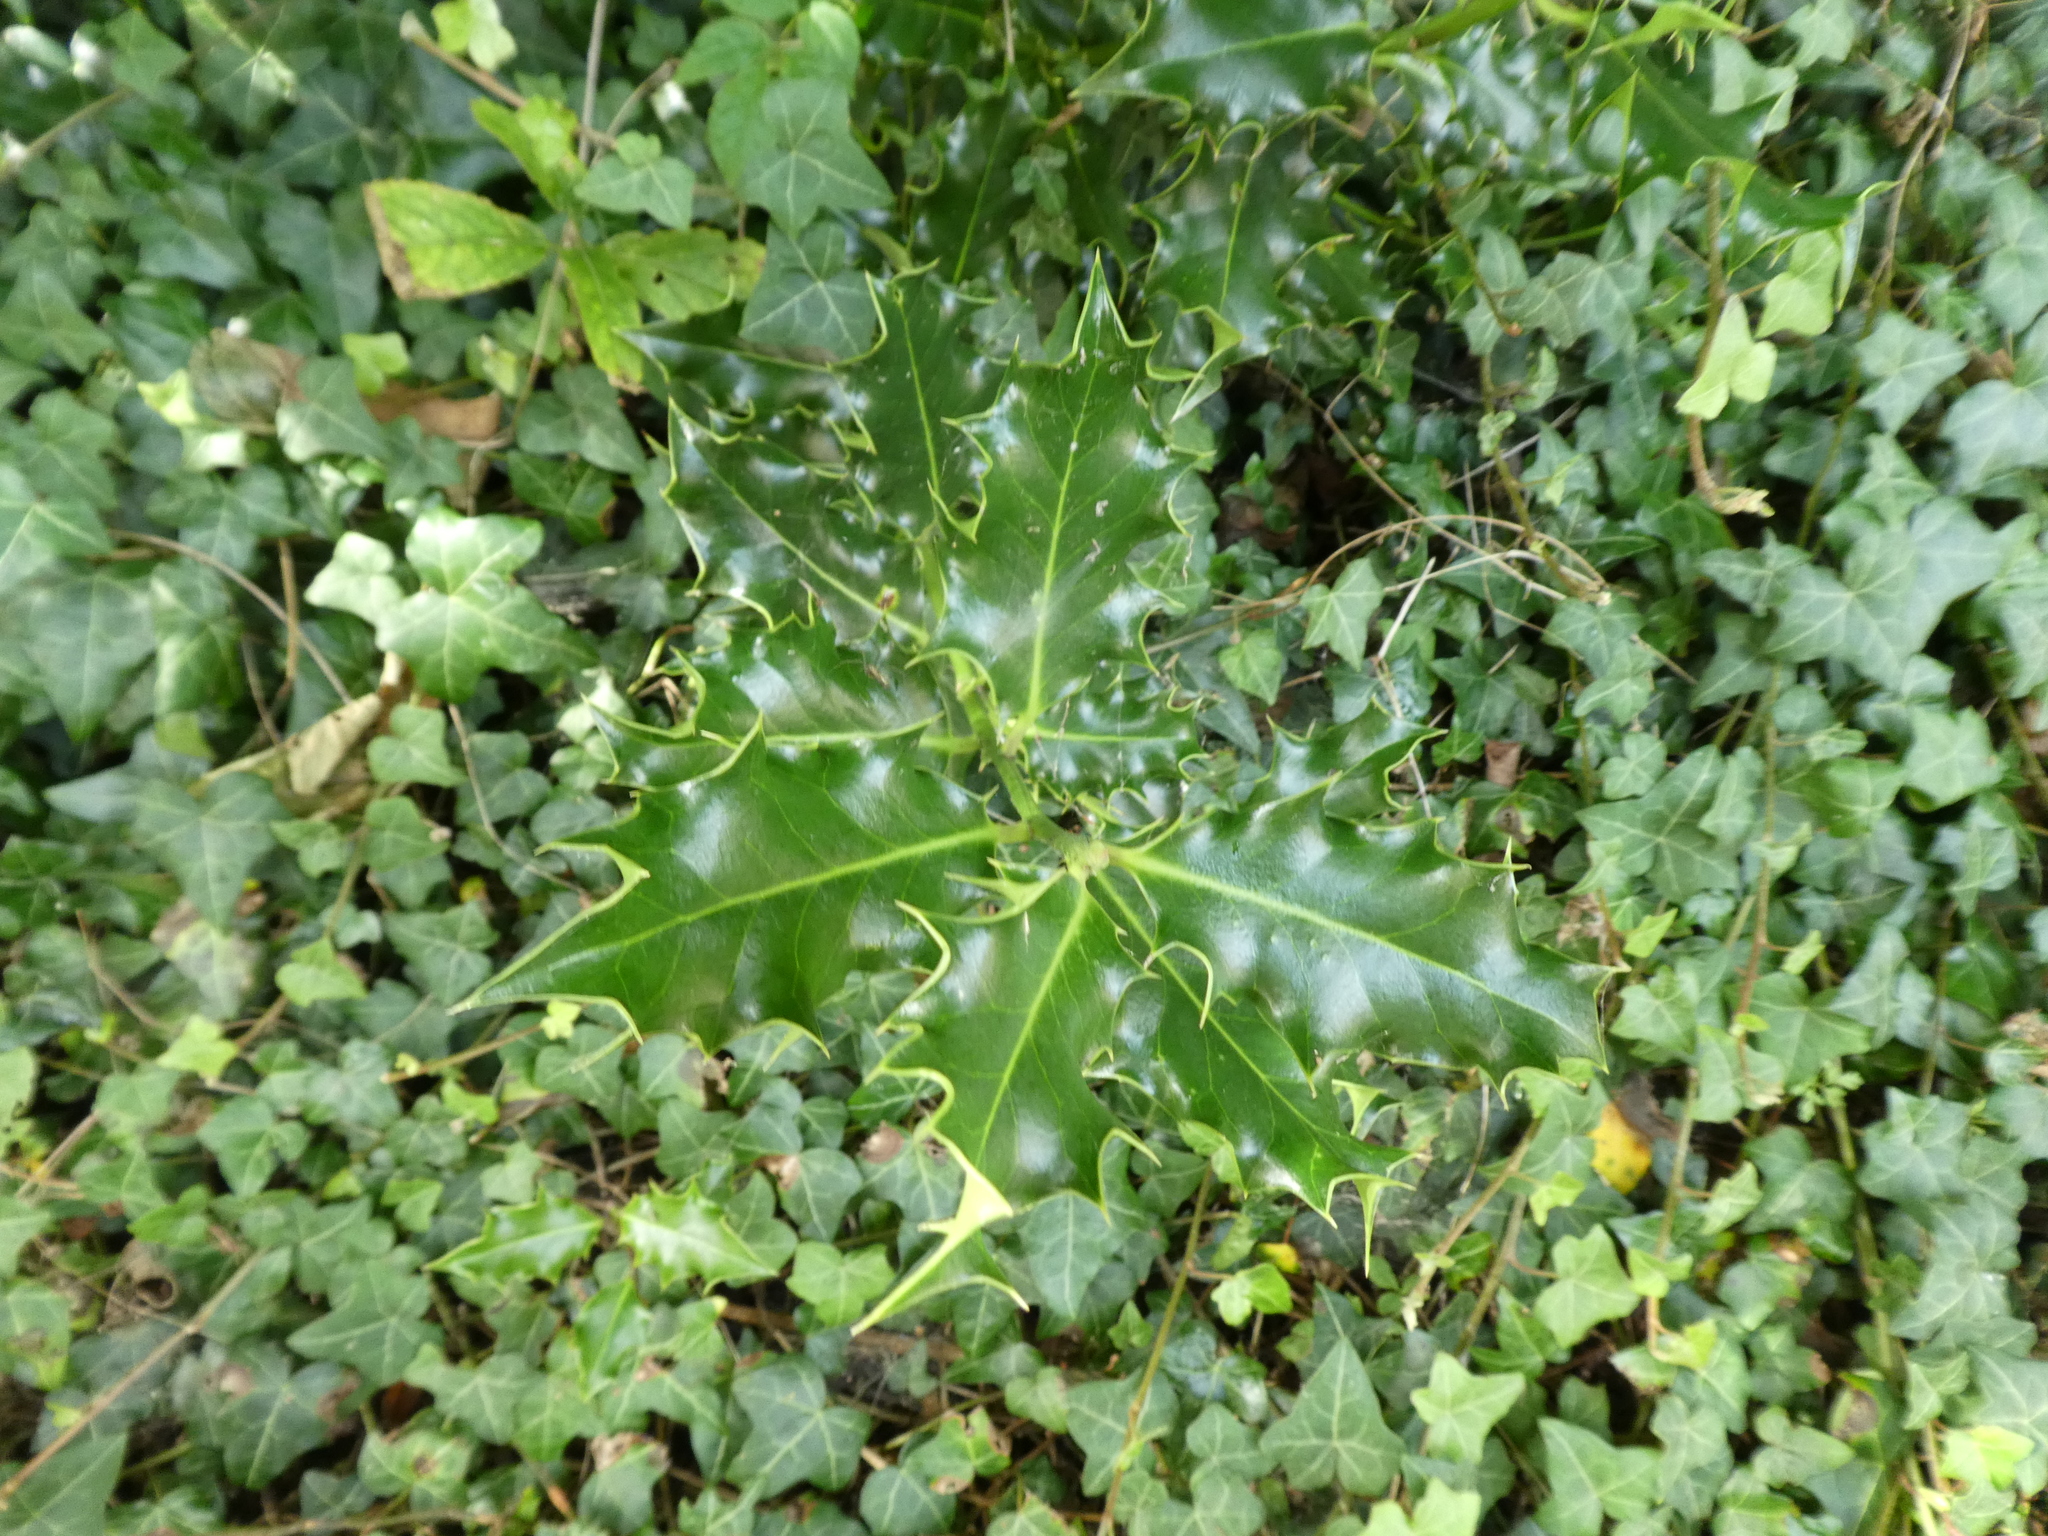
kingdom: Plantae
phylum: Tracheophyta
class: Magnoliopsida
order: Aquifoliales
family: Aquifoliaceae
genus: Ilex
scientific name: Ilex aquifolium
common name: English holly
